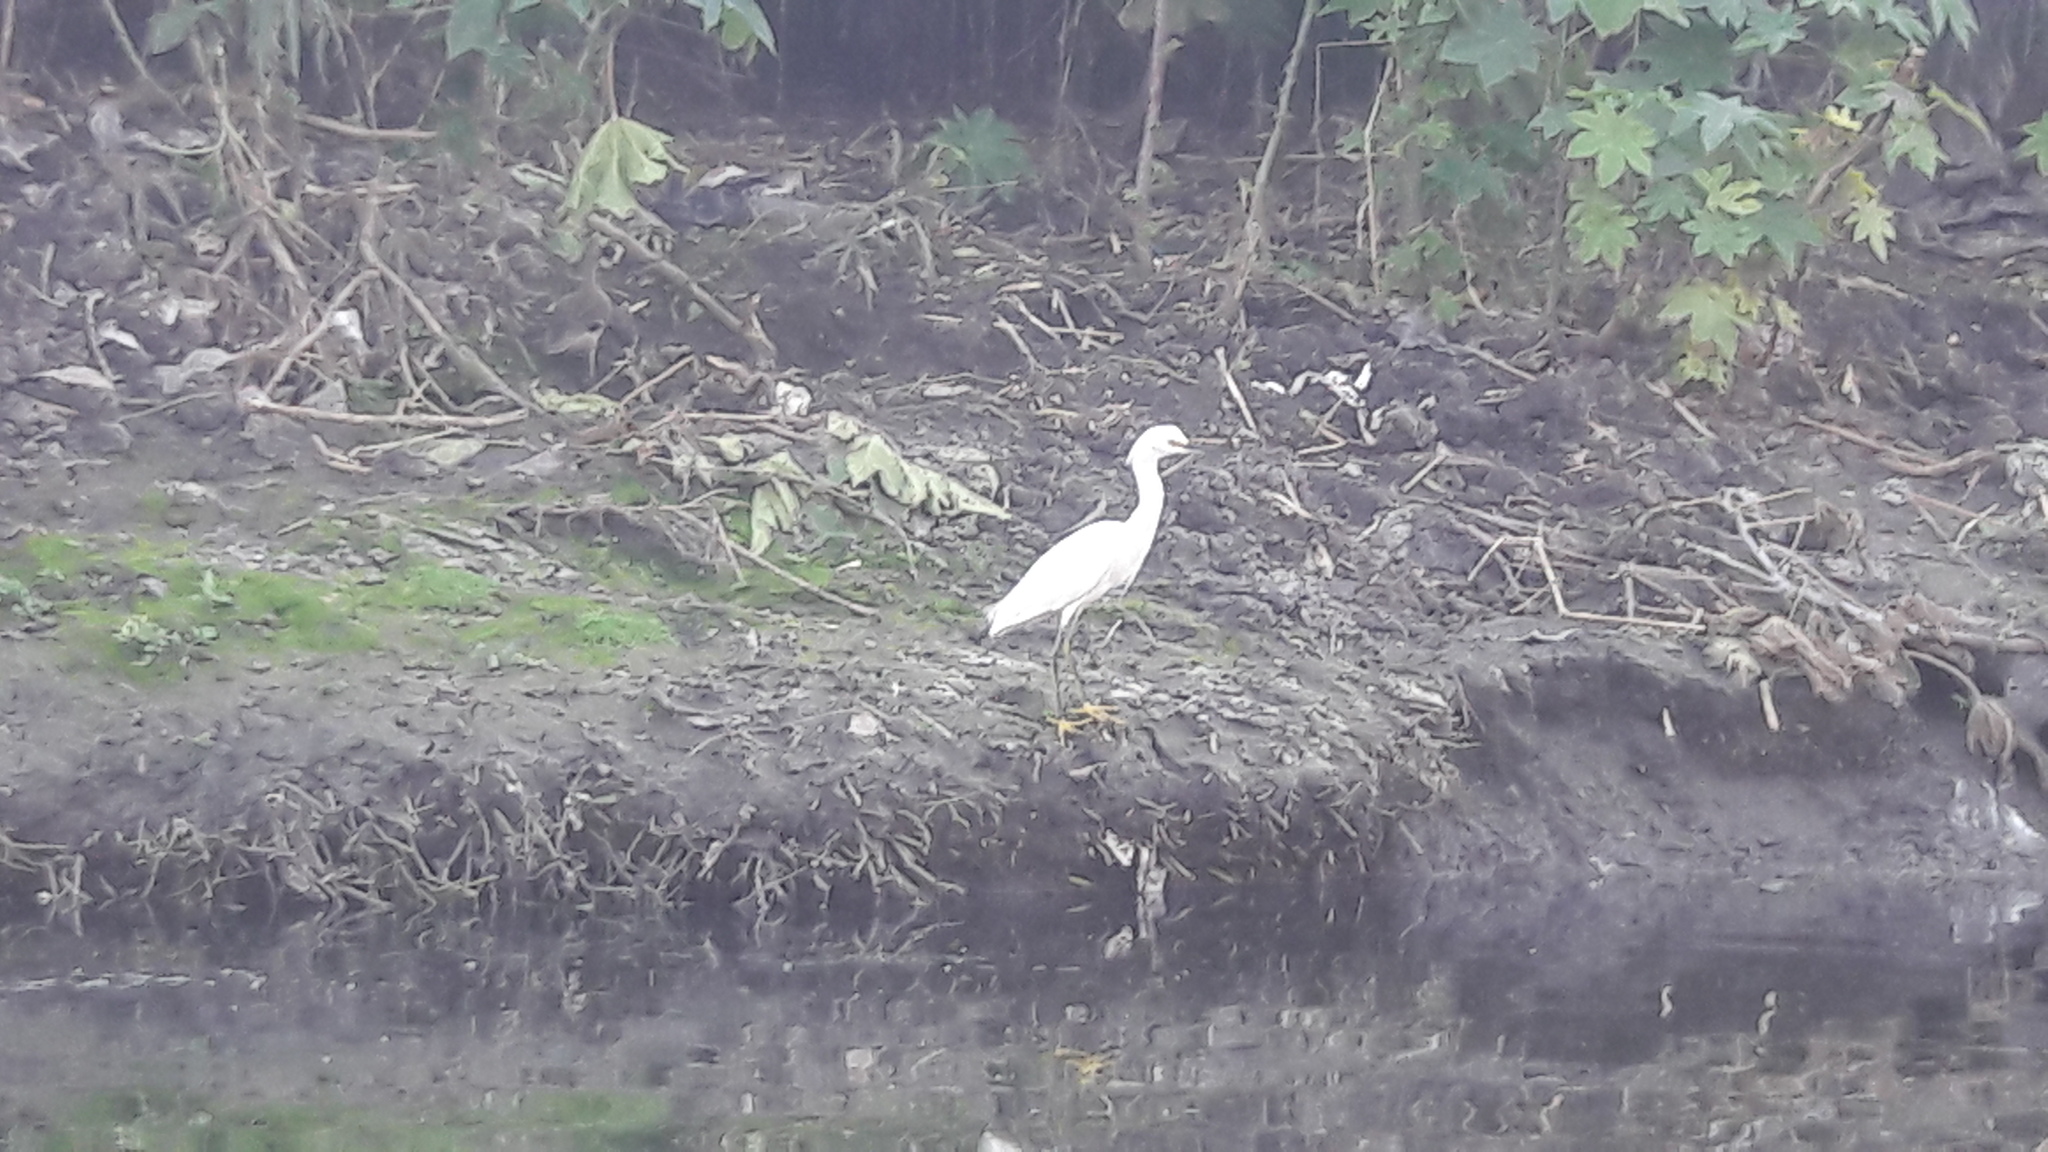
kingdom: Animalia
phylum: Chordata
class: Aves
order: Pelecaniformes
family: Ardeidae
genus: Egretta
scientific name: Egretta thula
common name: Snowy egret
